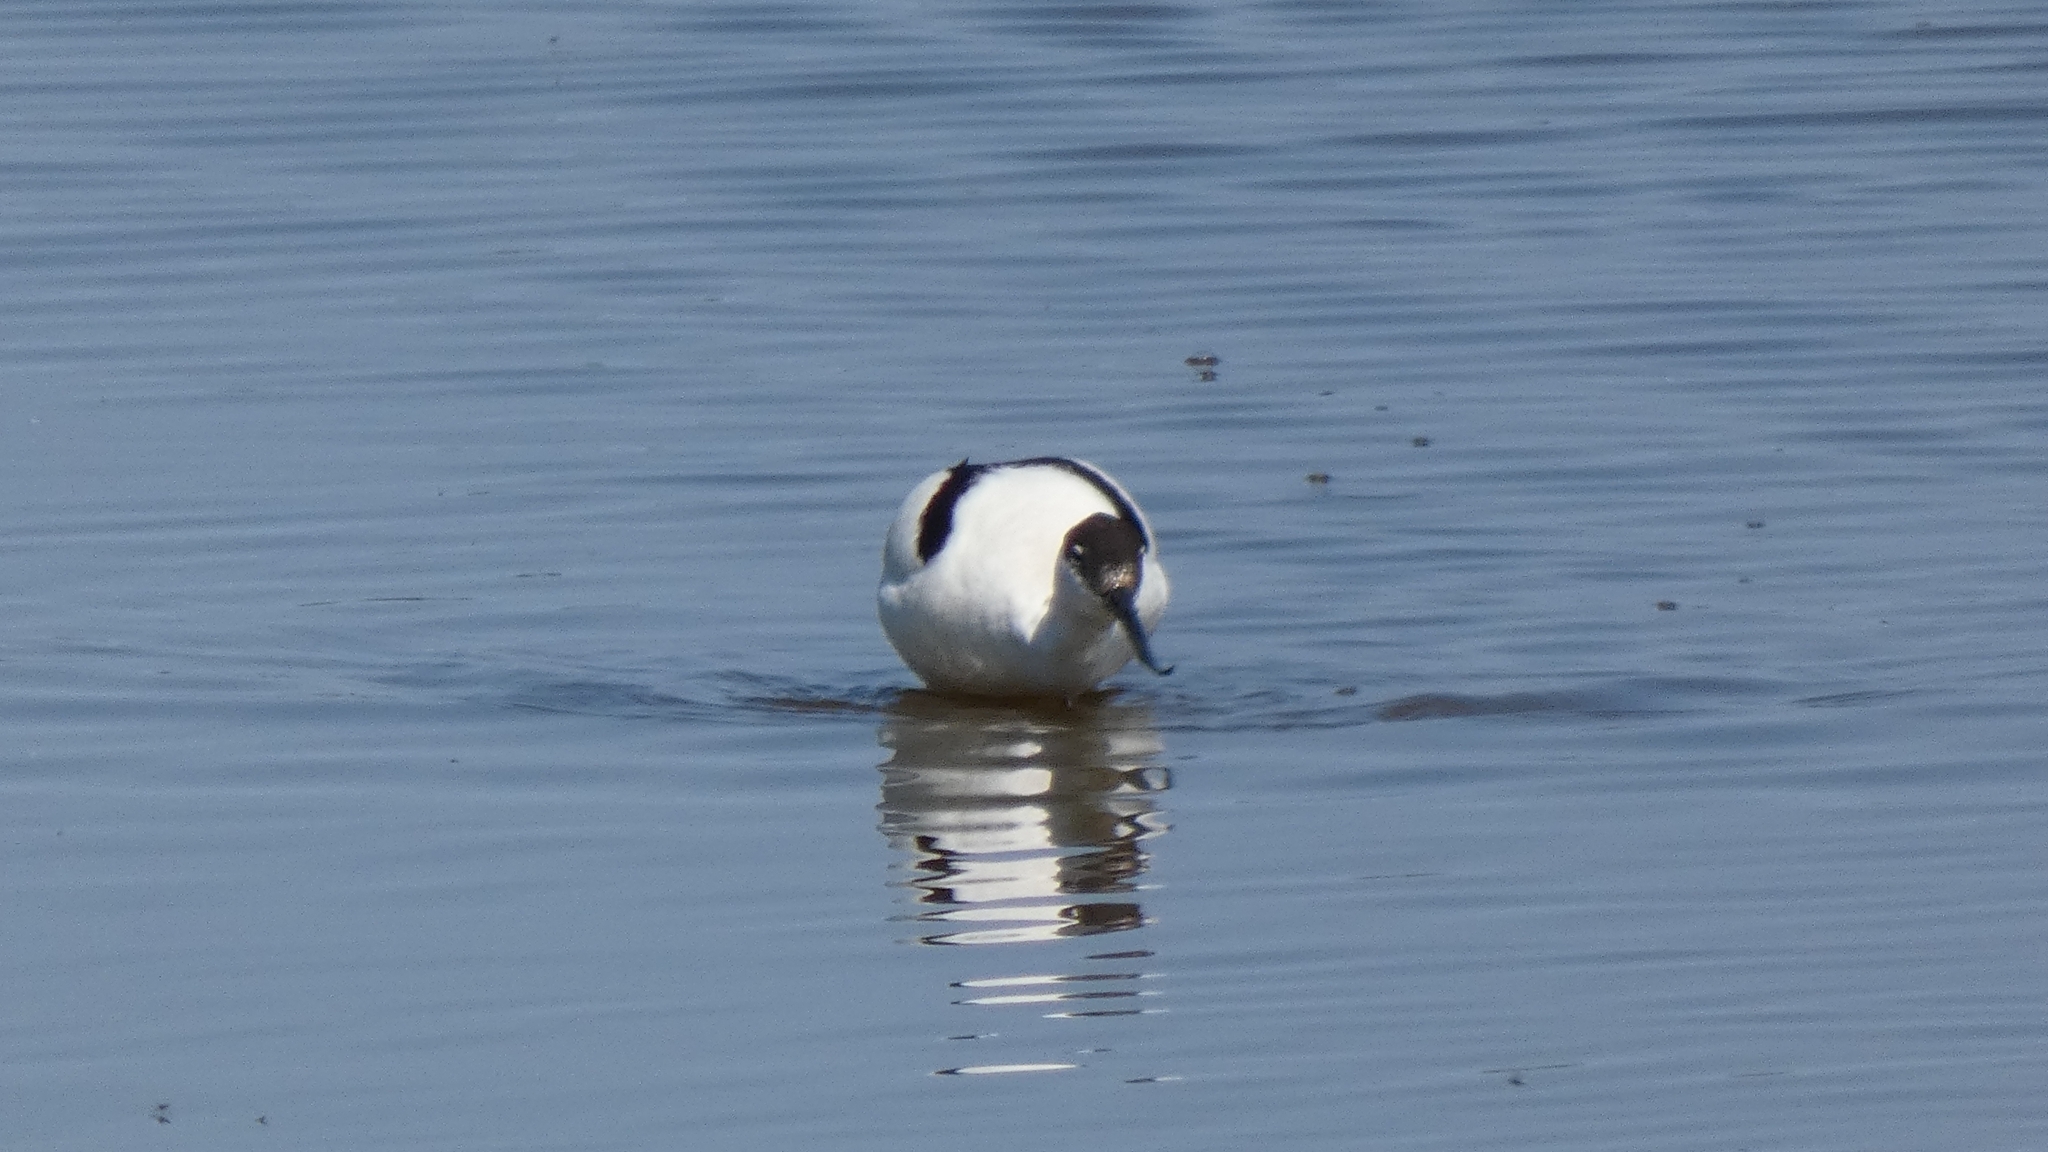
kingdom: Animalia
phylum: Chordata
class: Aves
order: Charadriiformes
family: Recurvirostridae
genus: Recurvirostra
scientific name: Recurvirostra avosetta
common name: Pied avocet
